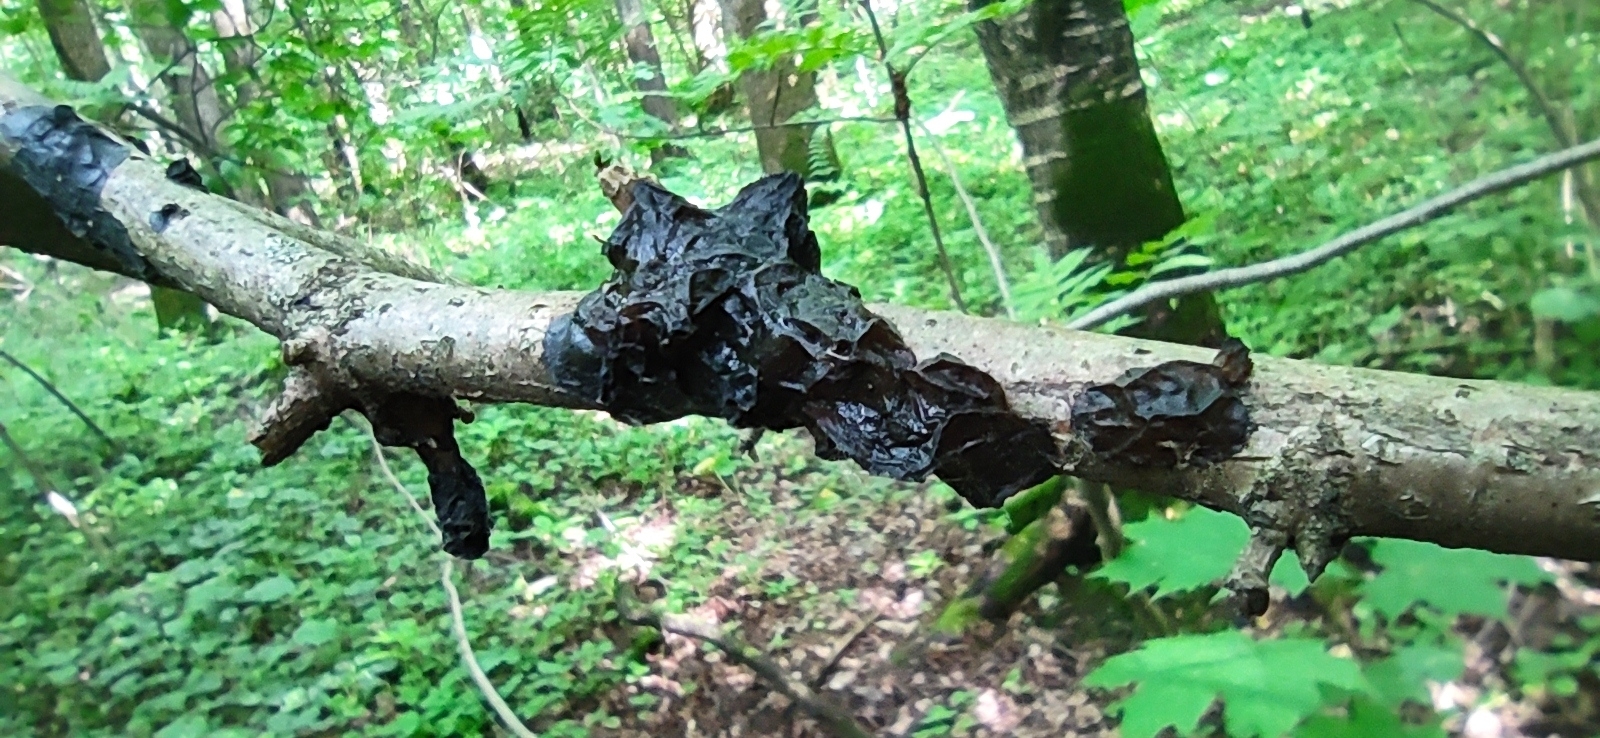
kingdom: Fungi
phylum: Basidiomycota
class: Agaricomycetes
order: Auriculariales
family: Auriculariaceae
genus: Exidia
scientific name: Exidia glandulosa
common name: Witches' butter
